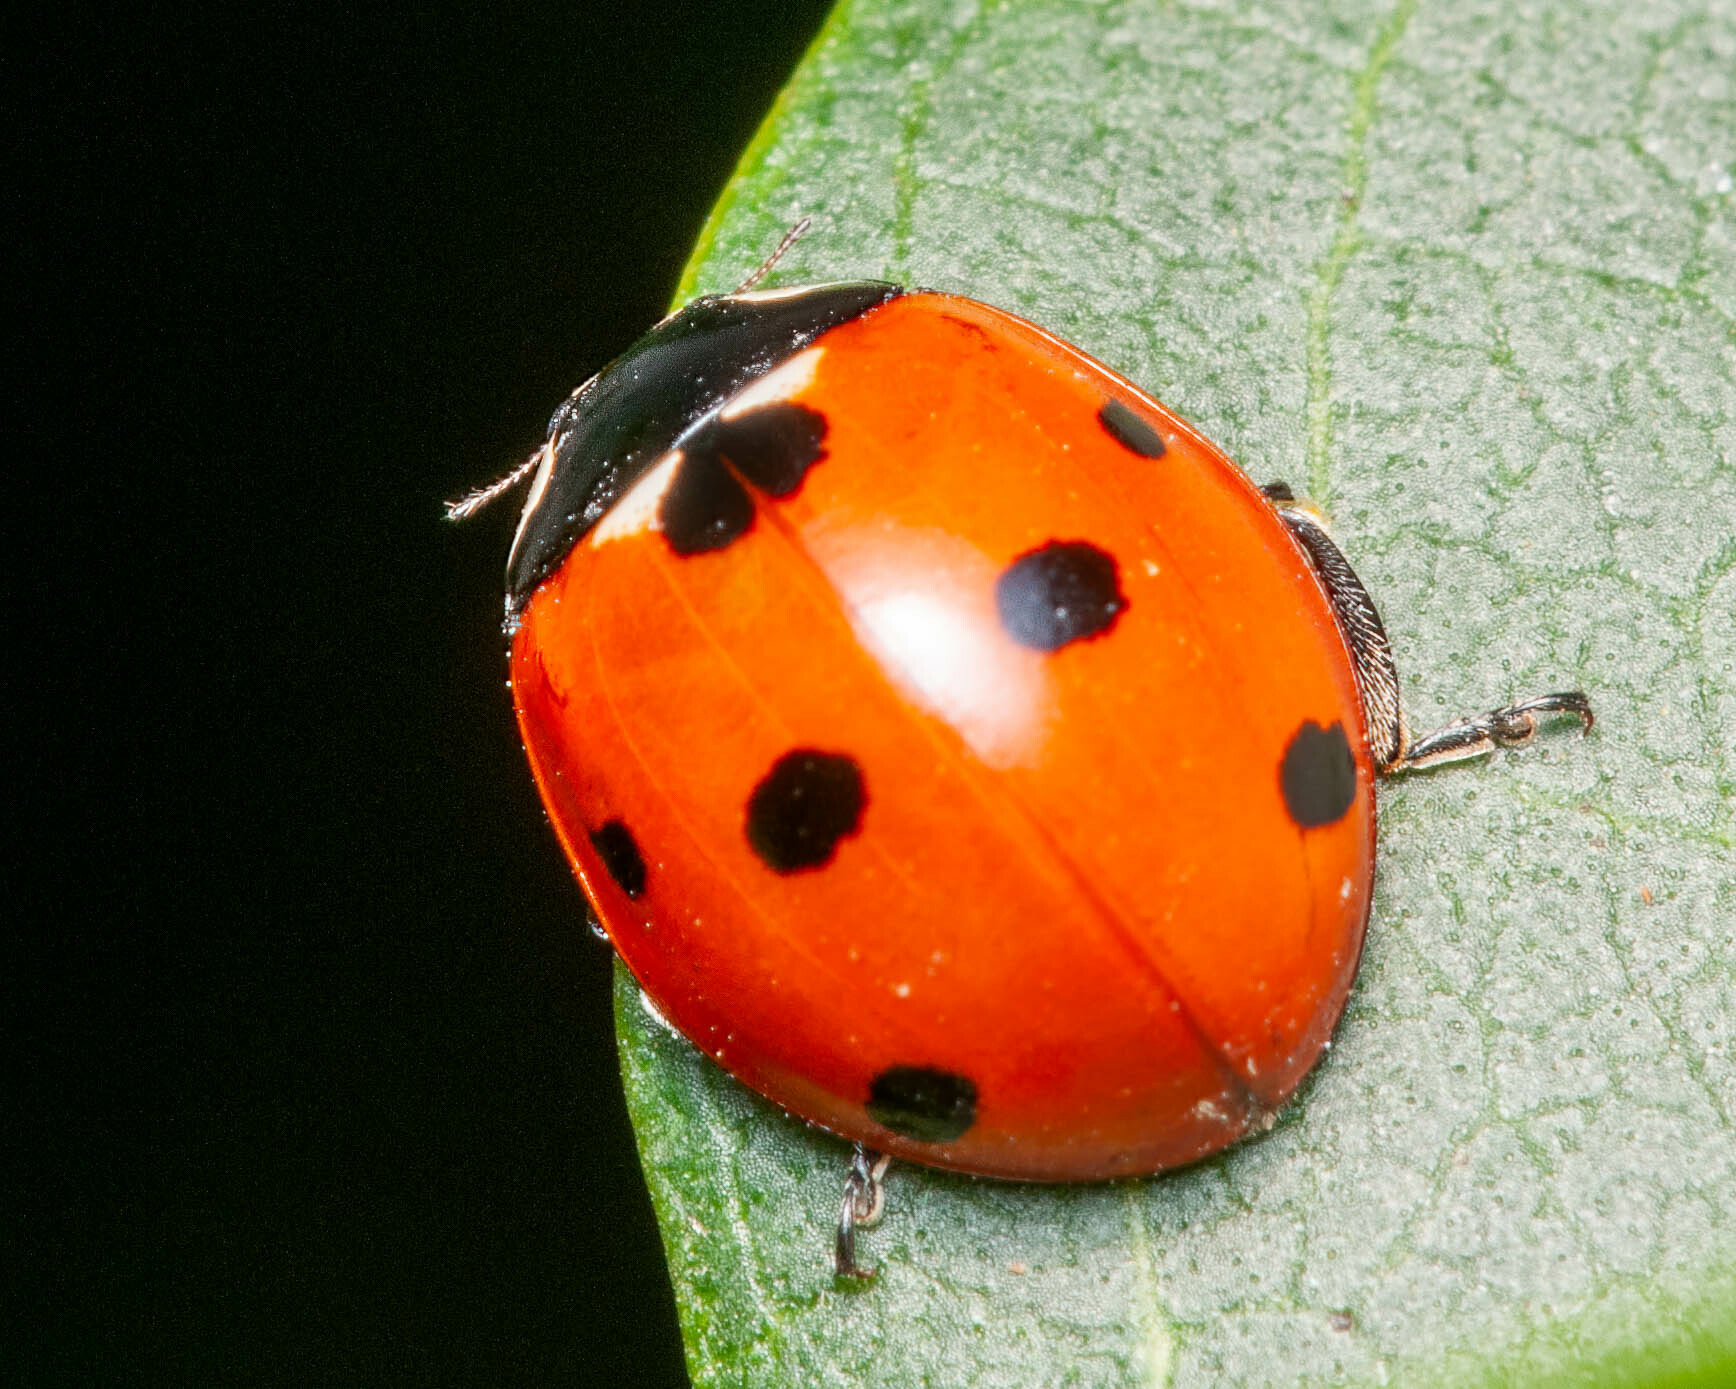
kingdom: Animalia
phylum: Arthropoda
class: Insecta
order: Coleoptera
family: Coccinellidae
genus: Coccinella
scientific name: Coccinella septempunctata
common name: Sevenspotted lady beetle
